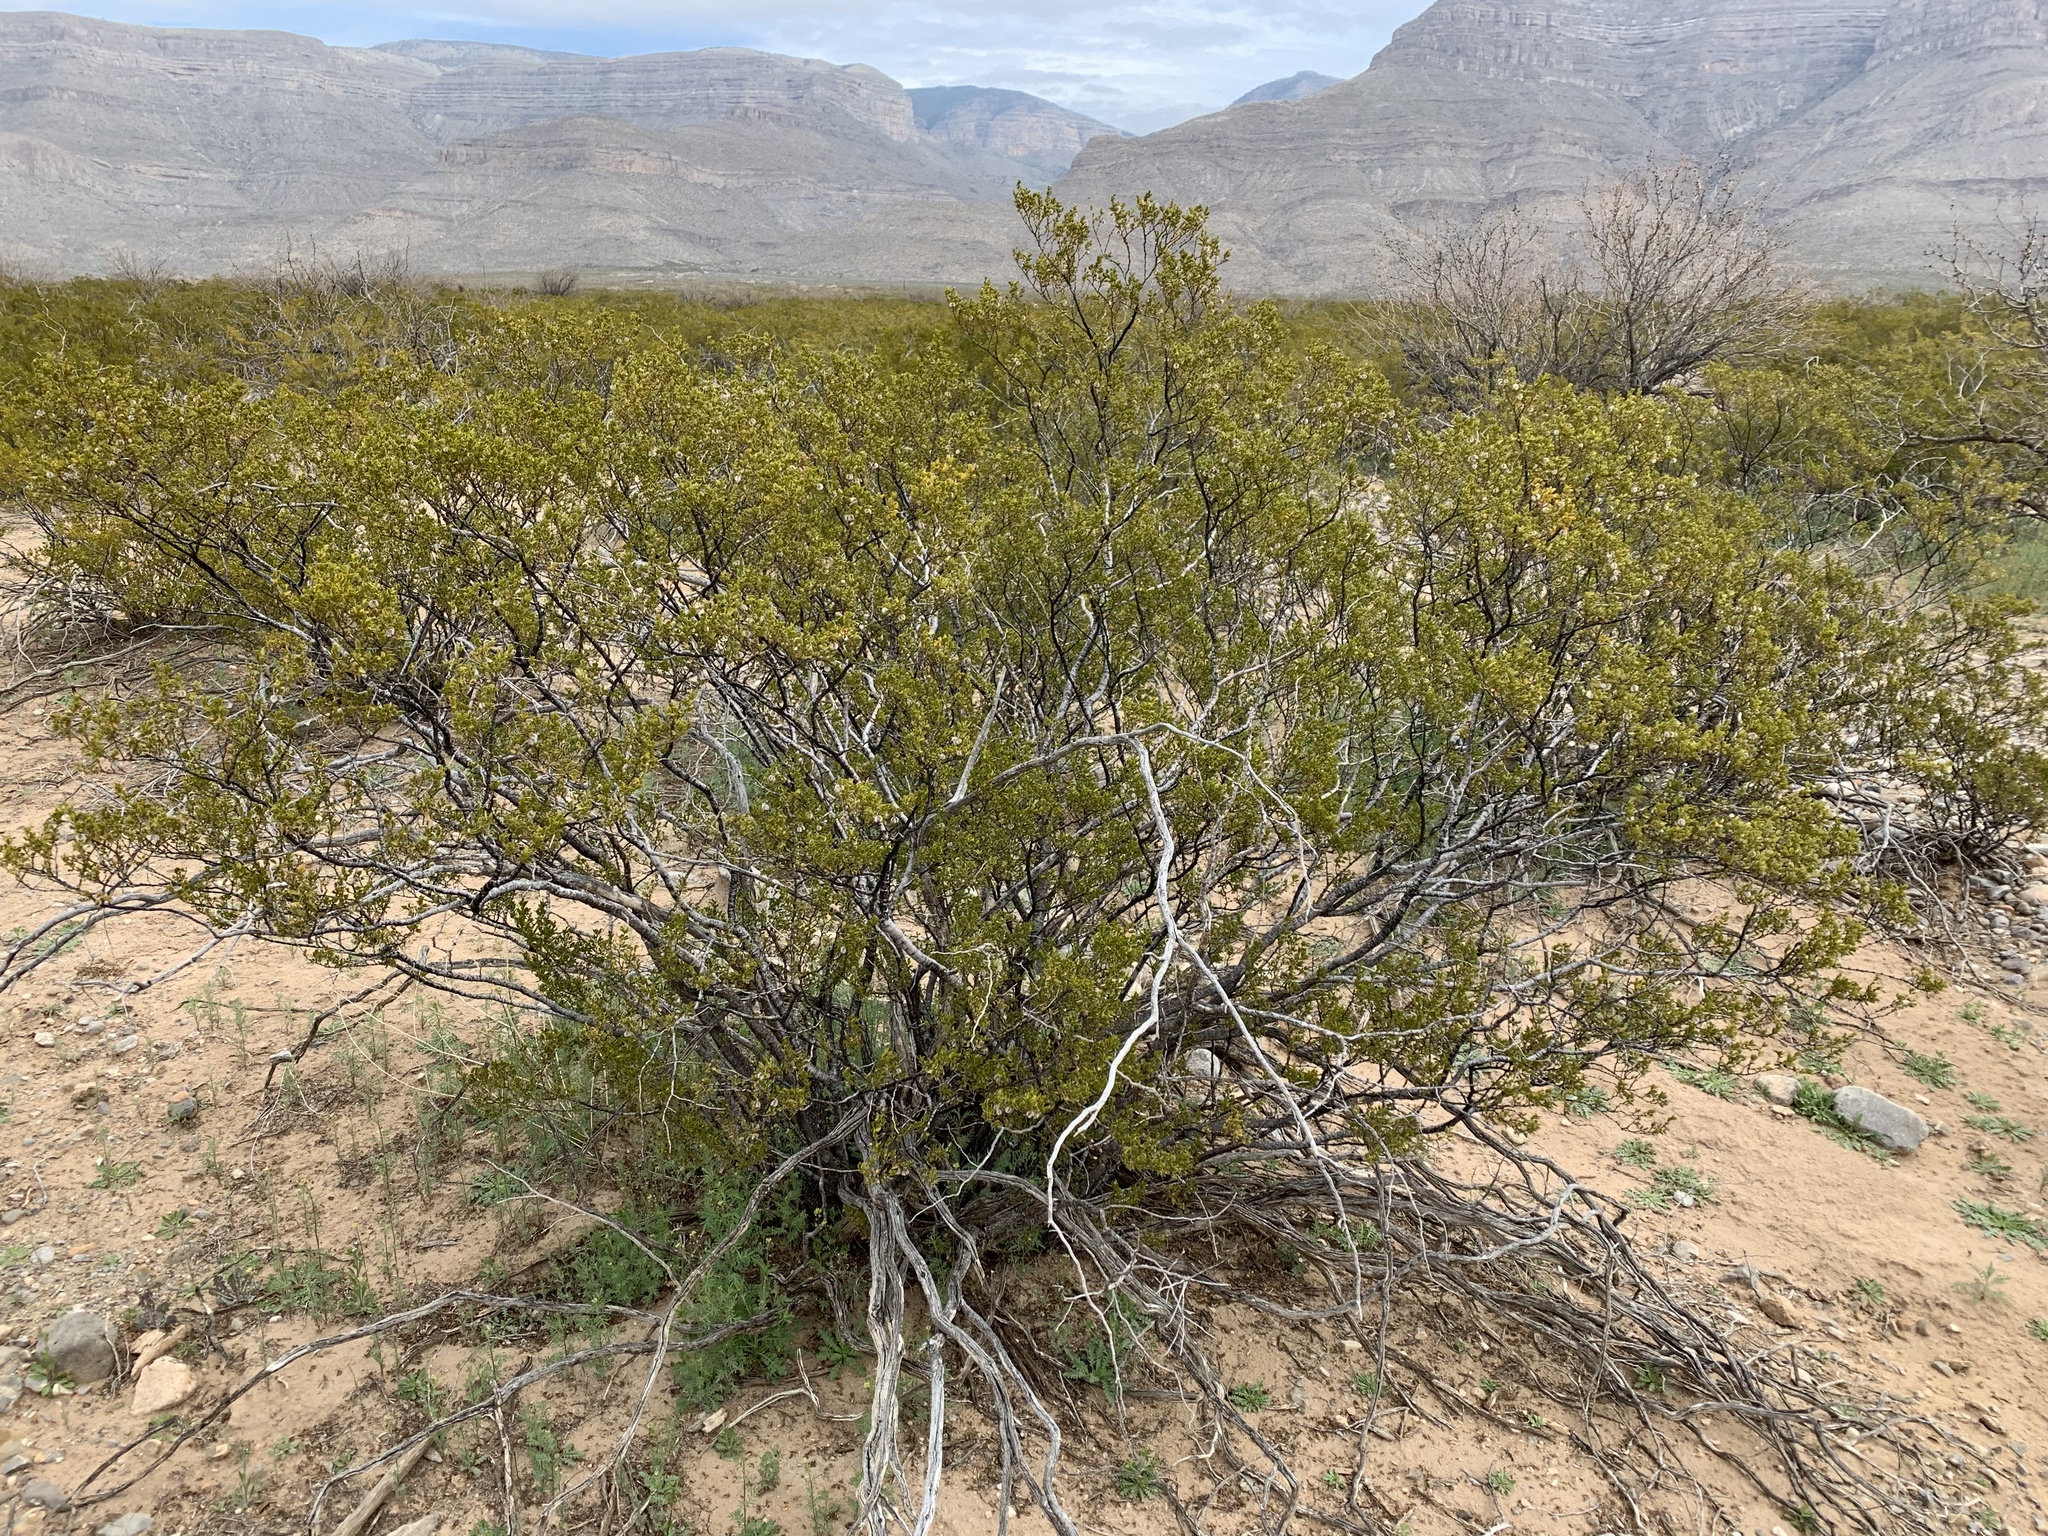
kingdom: Plantae
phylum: Tracheophyta
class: Magnoliopsida
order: Zygophyllales
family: Zygophyllaceae
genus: Larrea
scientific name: Larrea tridentata
